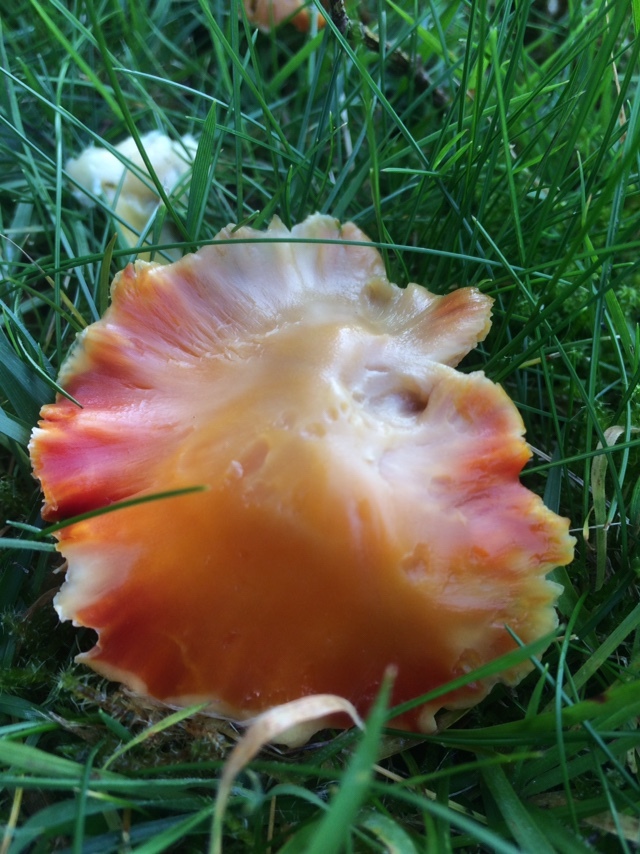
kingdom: Fungi
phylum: Basidiomycota
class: Agaricomycetes
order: Agaricales
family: Hygrophoraceae
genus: Hygrocybe
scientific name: Hygrocybe coccinea
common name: Scarlet hood
